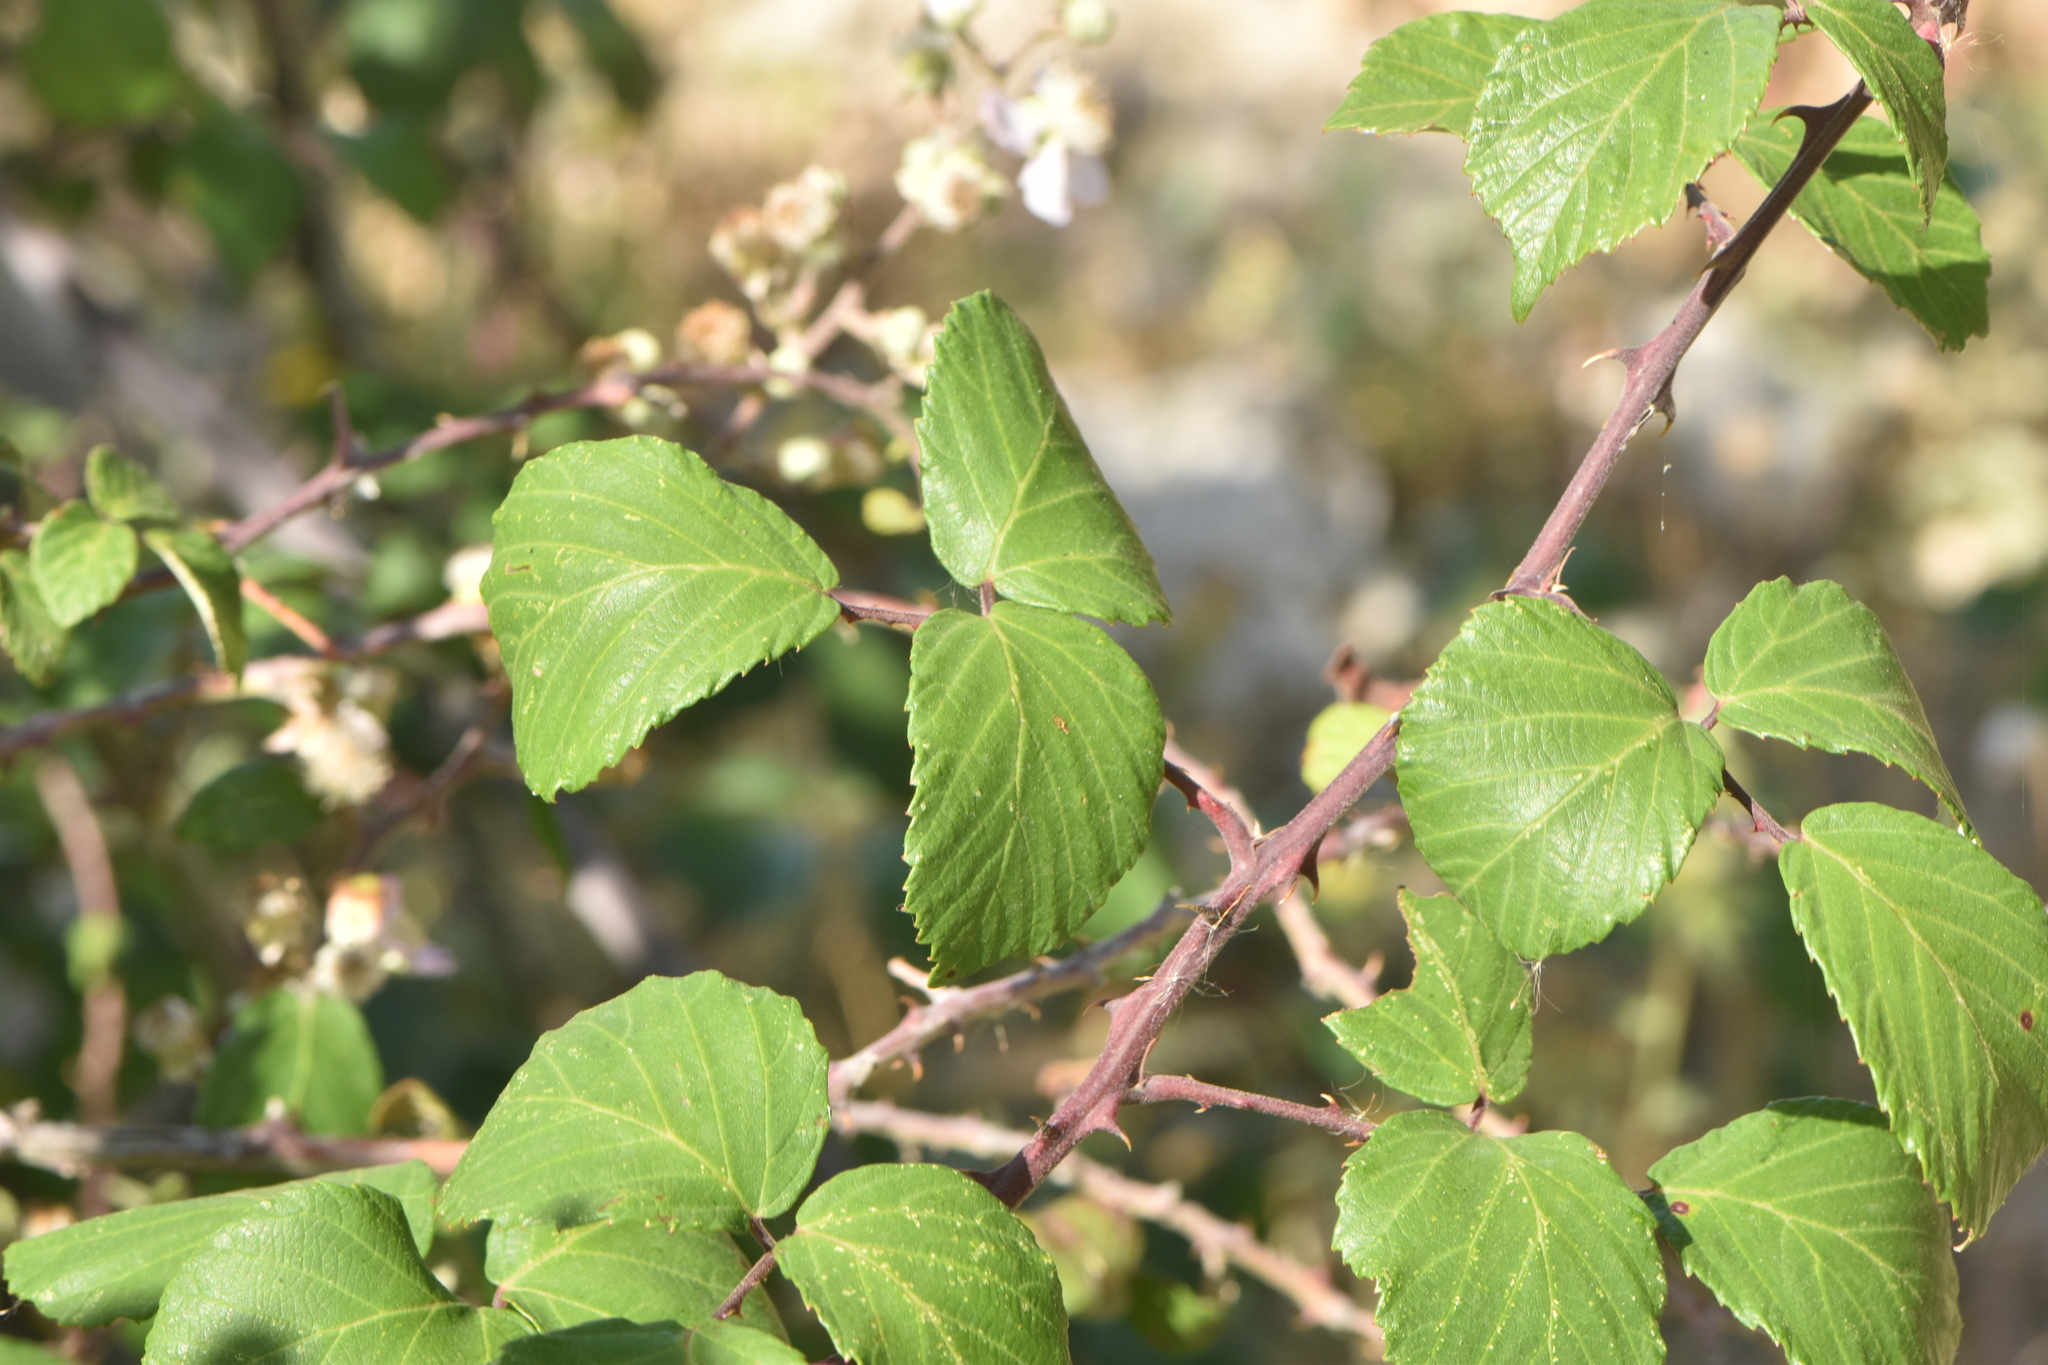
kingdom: Plantae
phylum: Tracheophyta
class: Magnoliopsida
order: Rosales
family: Rosaceae
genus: Rubus
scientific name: Rubus ulmifolius
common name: Elmleaf blackberry
